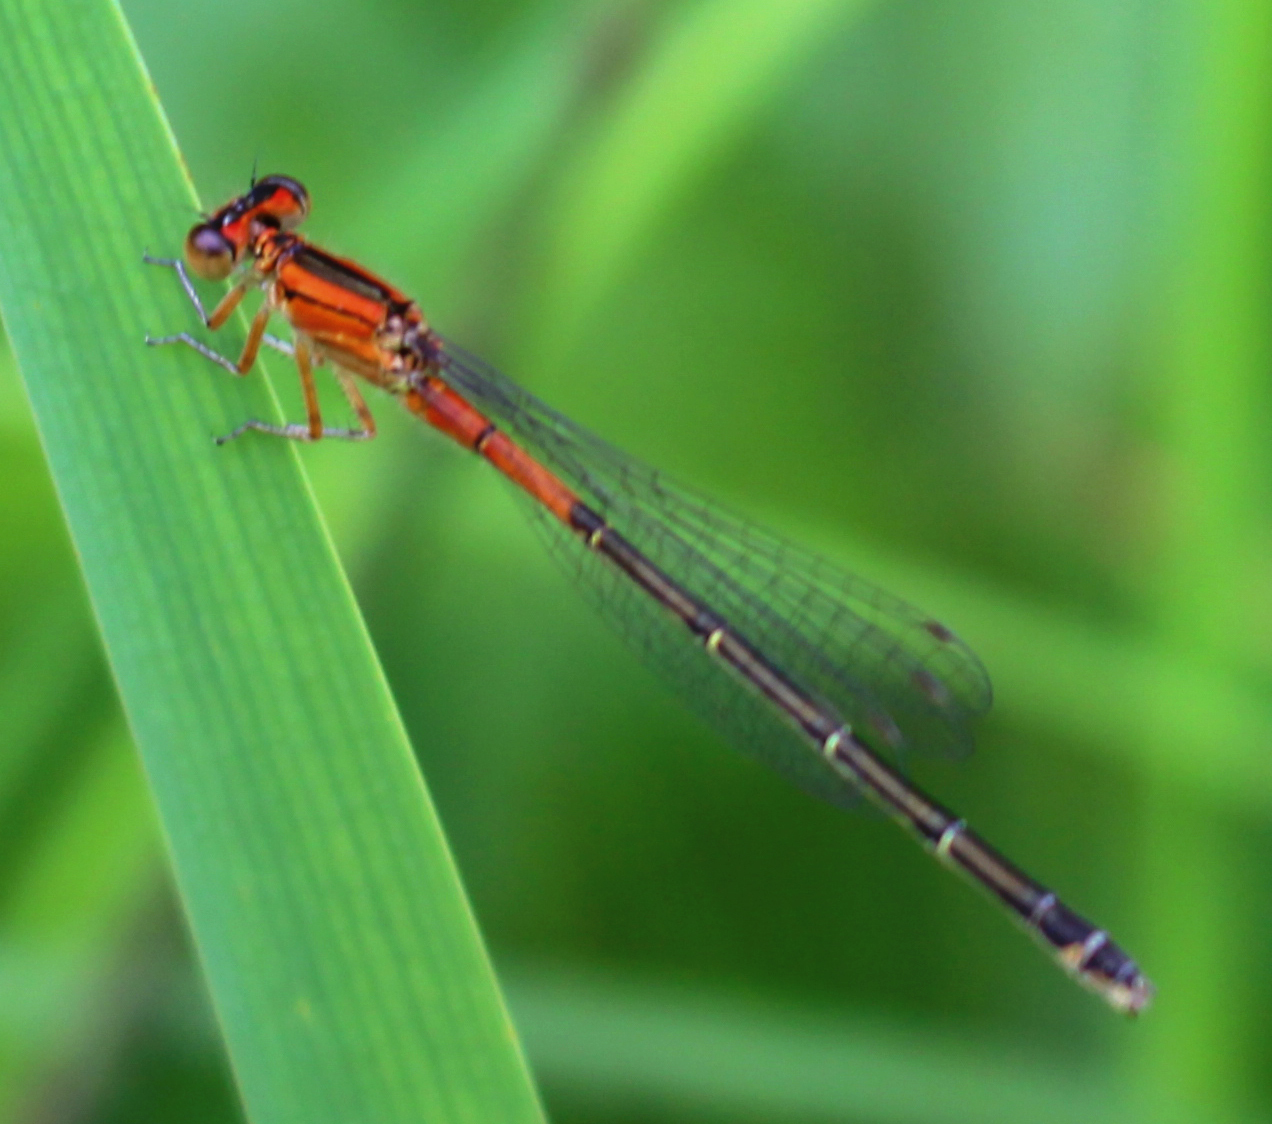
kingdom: Animalia
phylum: Arthropoda
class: Insecta
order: Odonata
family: Coenagrionidae
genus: Ischnura
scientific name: Ischnura verticalis
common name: Eastern forktail
